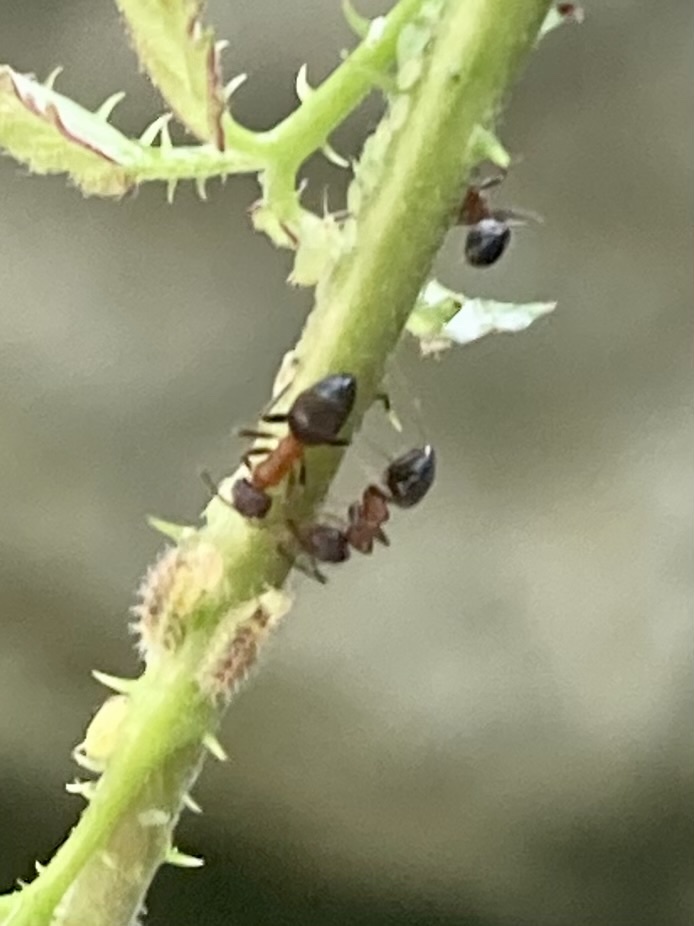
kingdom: Animalia
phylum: Arthropoda
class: Insecta
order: Hymenoptera
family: Formicidae
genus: Lasius
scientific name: Lasius emarginatus
